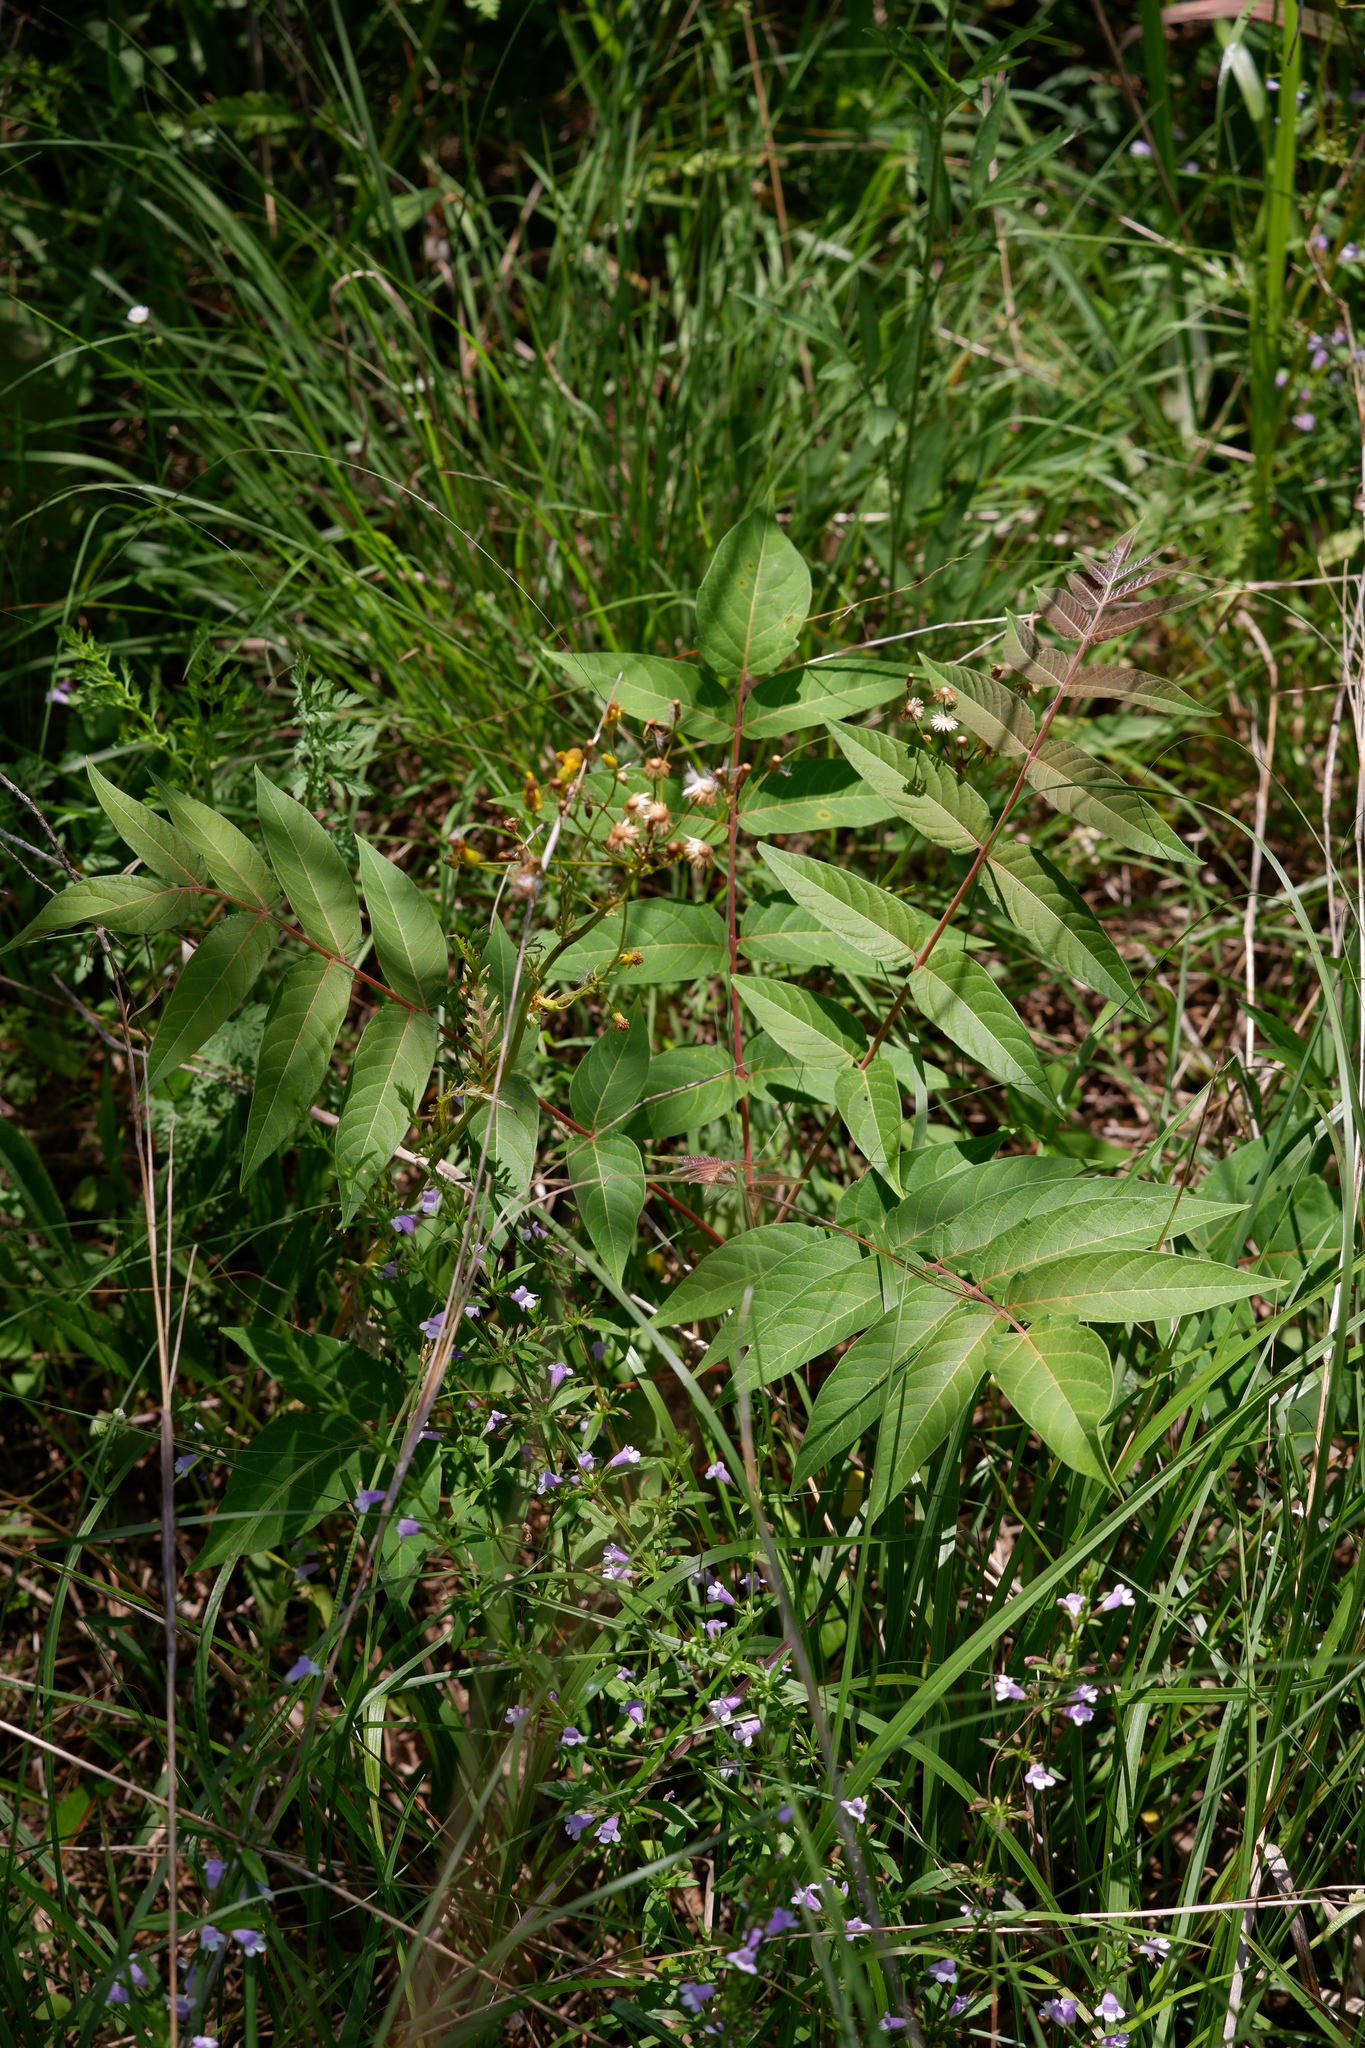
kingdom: Plantae
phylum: Tracheophyta
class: Magnoliopsida
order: Sapindales
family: Simaroubaceae
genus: Ailanthus
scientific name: Ailanthus altissima
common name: Tree-of-heaven
